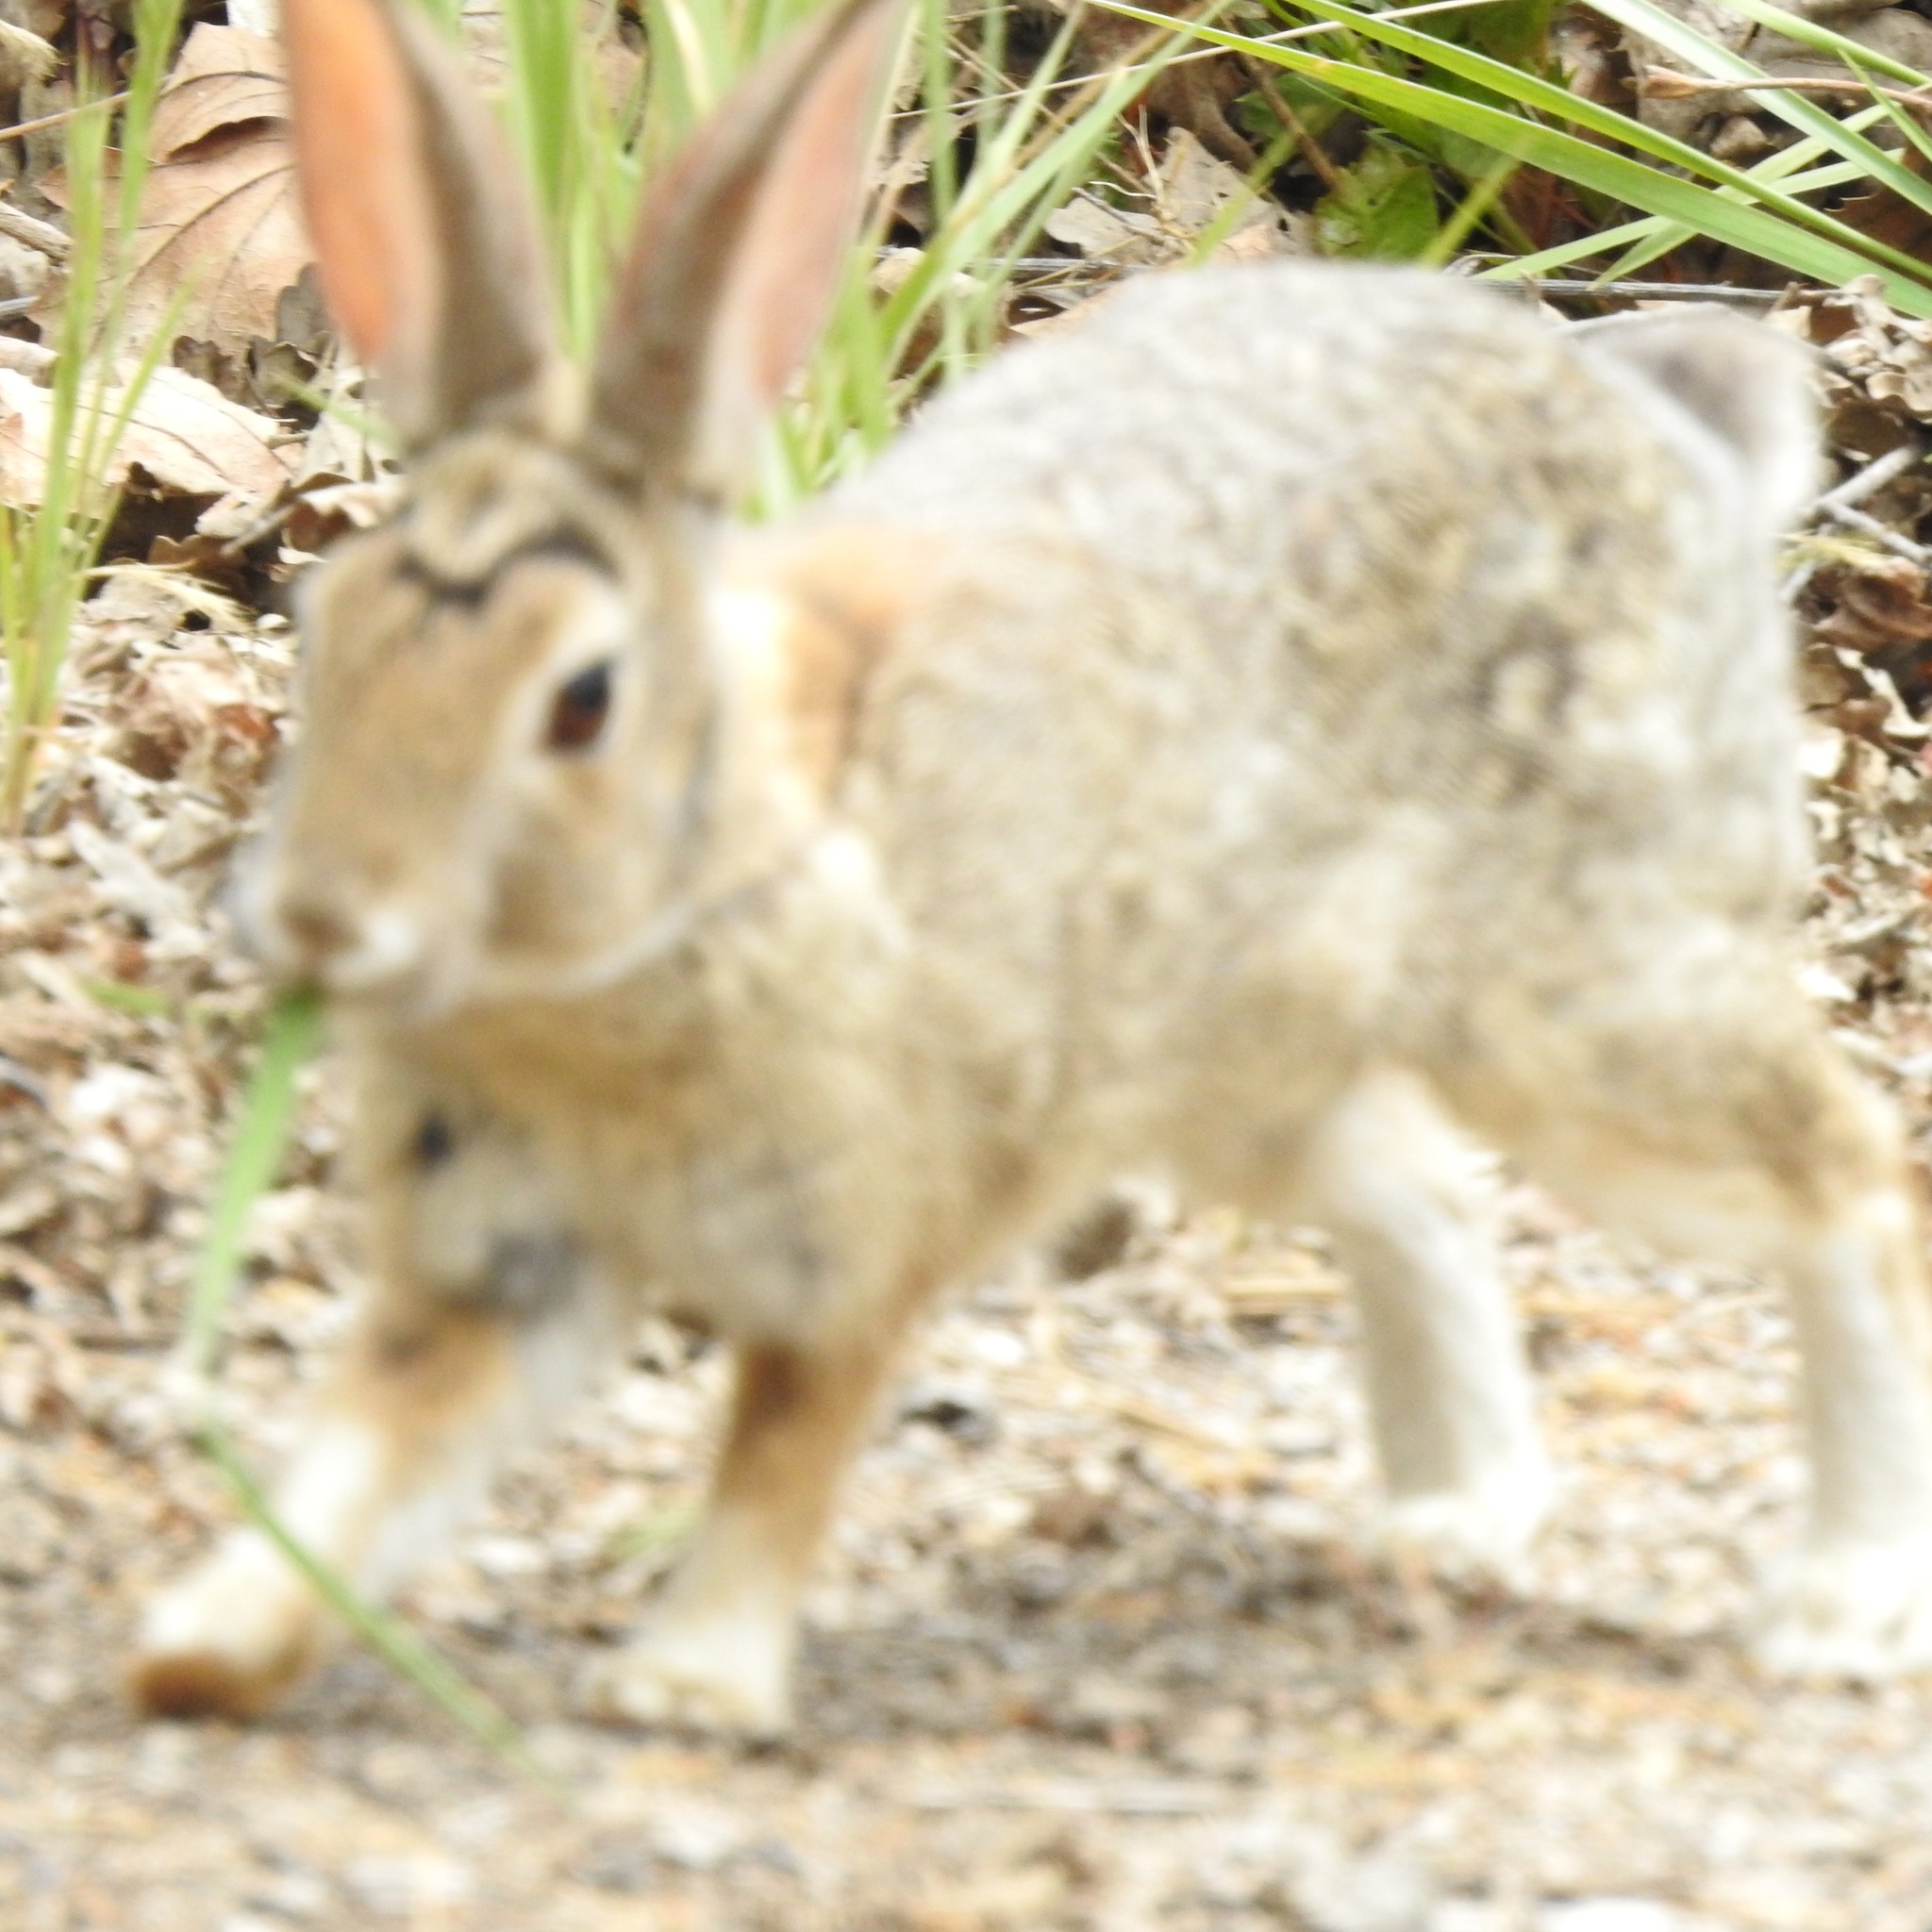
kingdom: Animalia
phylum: Chordata
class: Mammalia
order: Lagomorpha
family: Leporidae
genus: Sylvilagus
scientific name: Sylvilagus audubonii
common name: Desert cottontail
